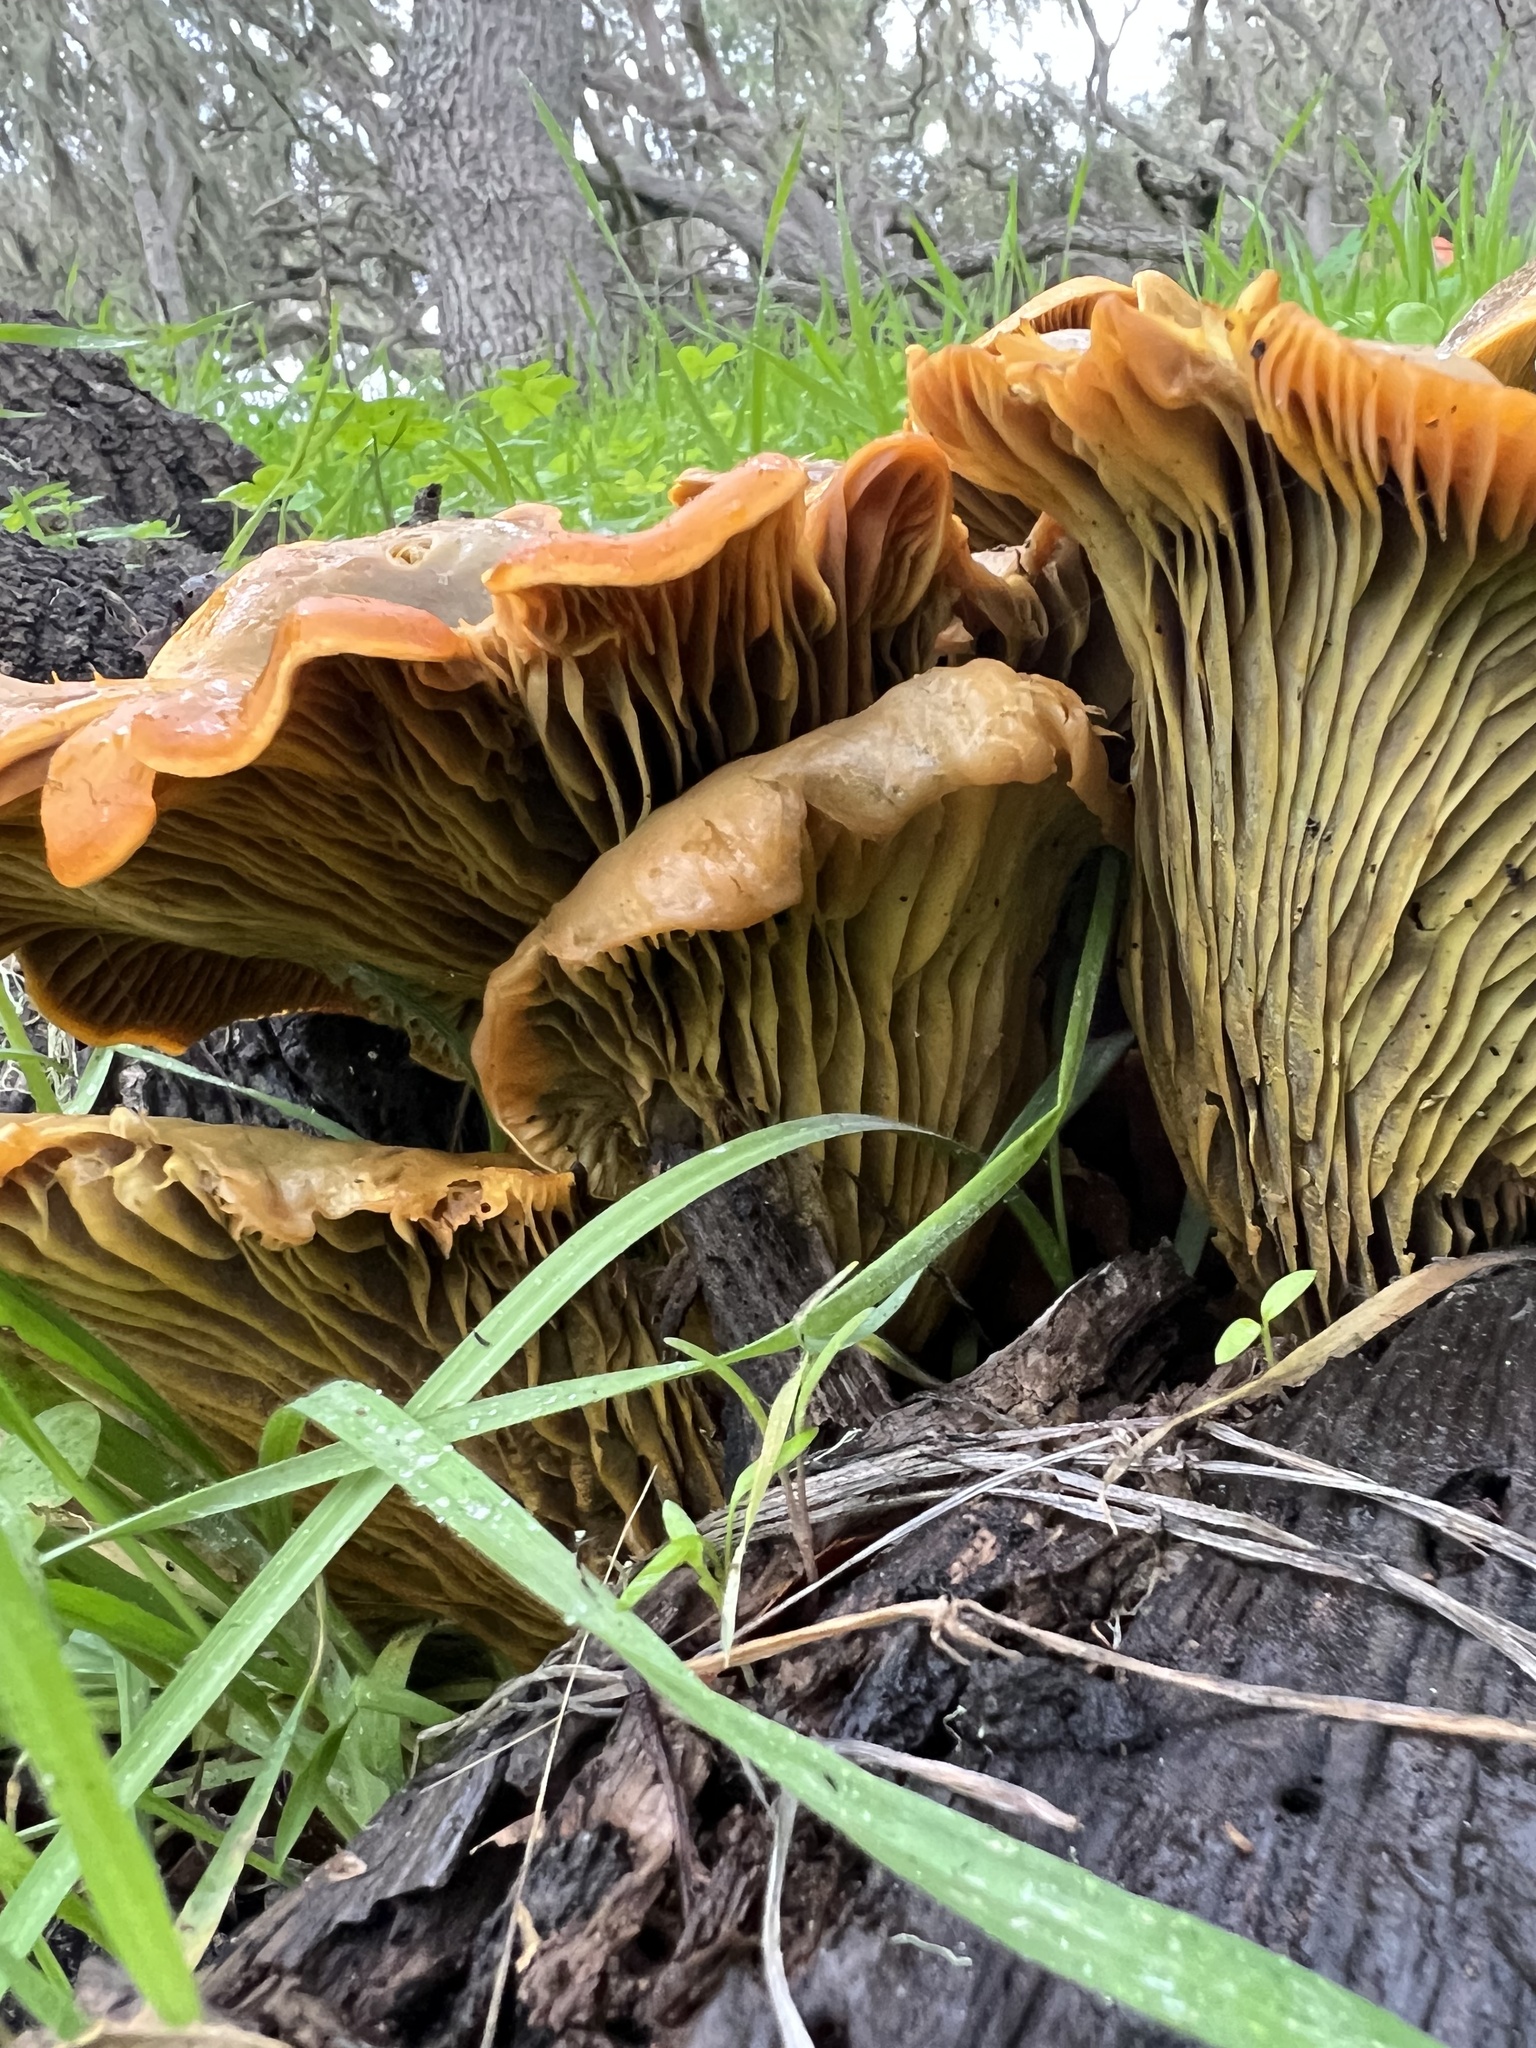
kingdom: Fungi
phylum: Basidiomycota
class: Agaricomycetes
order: Agaricales
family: Omphalotaceae
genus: Omphalotus
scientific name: Omphalotus olivascens
